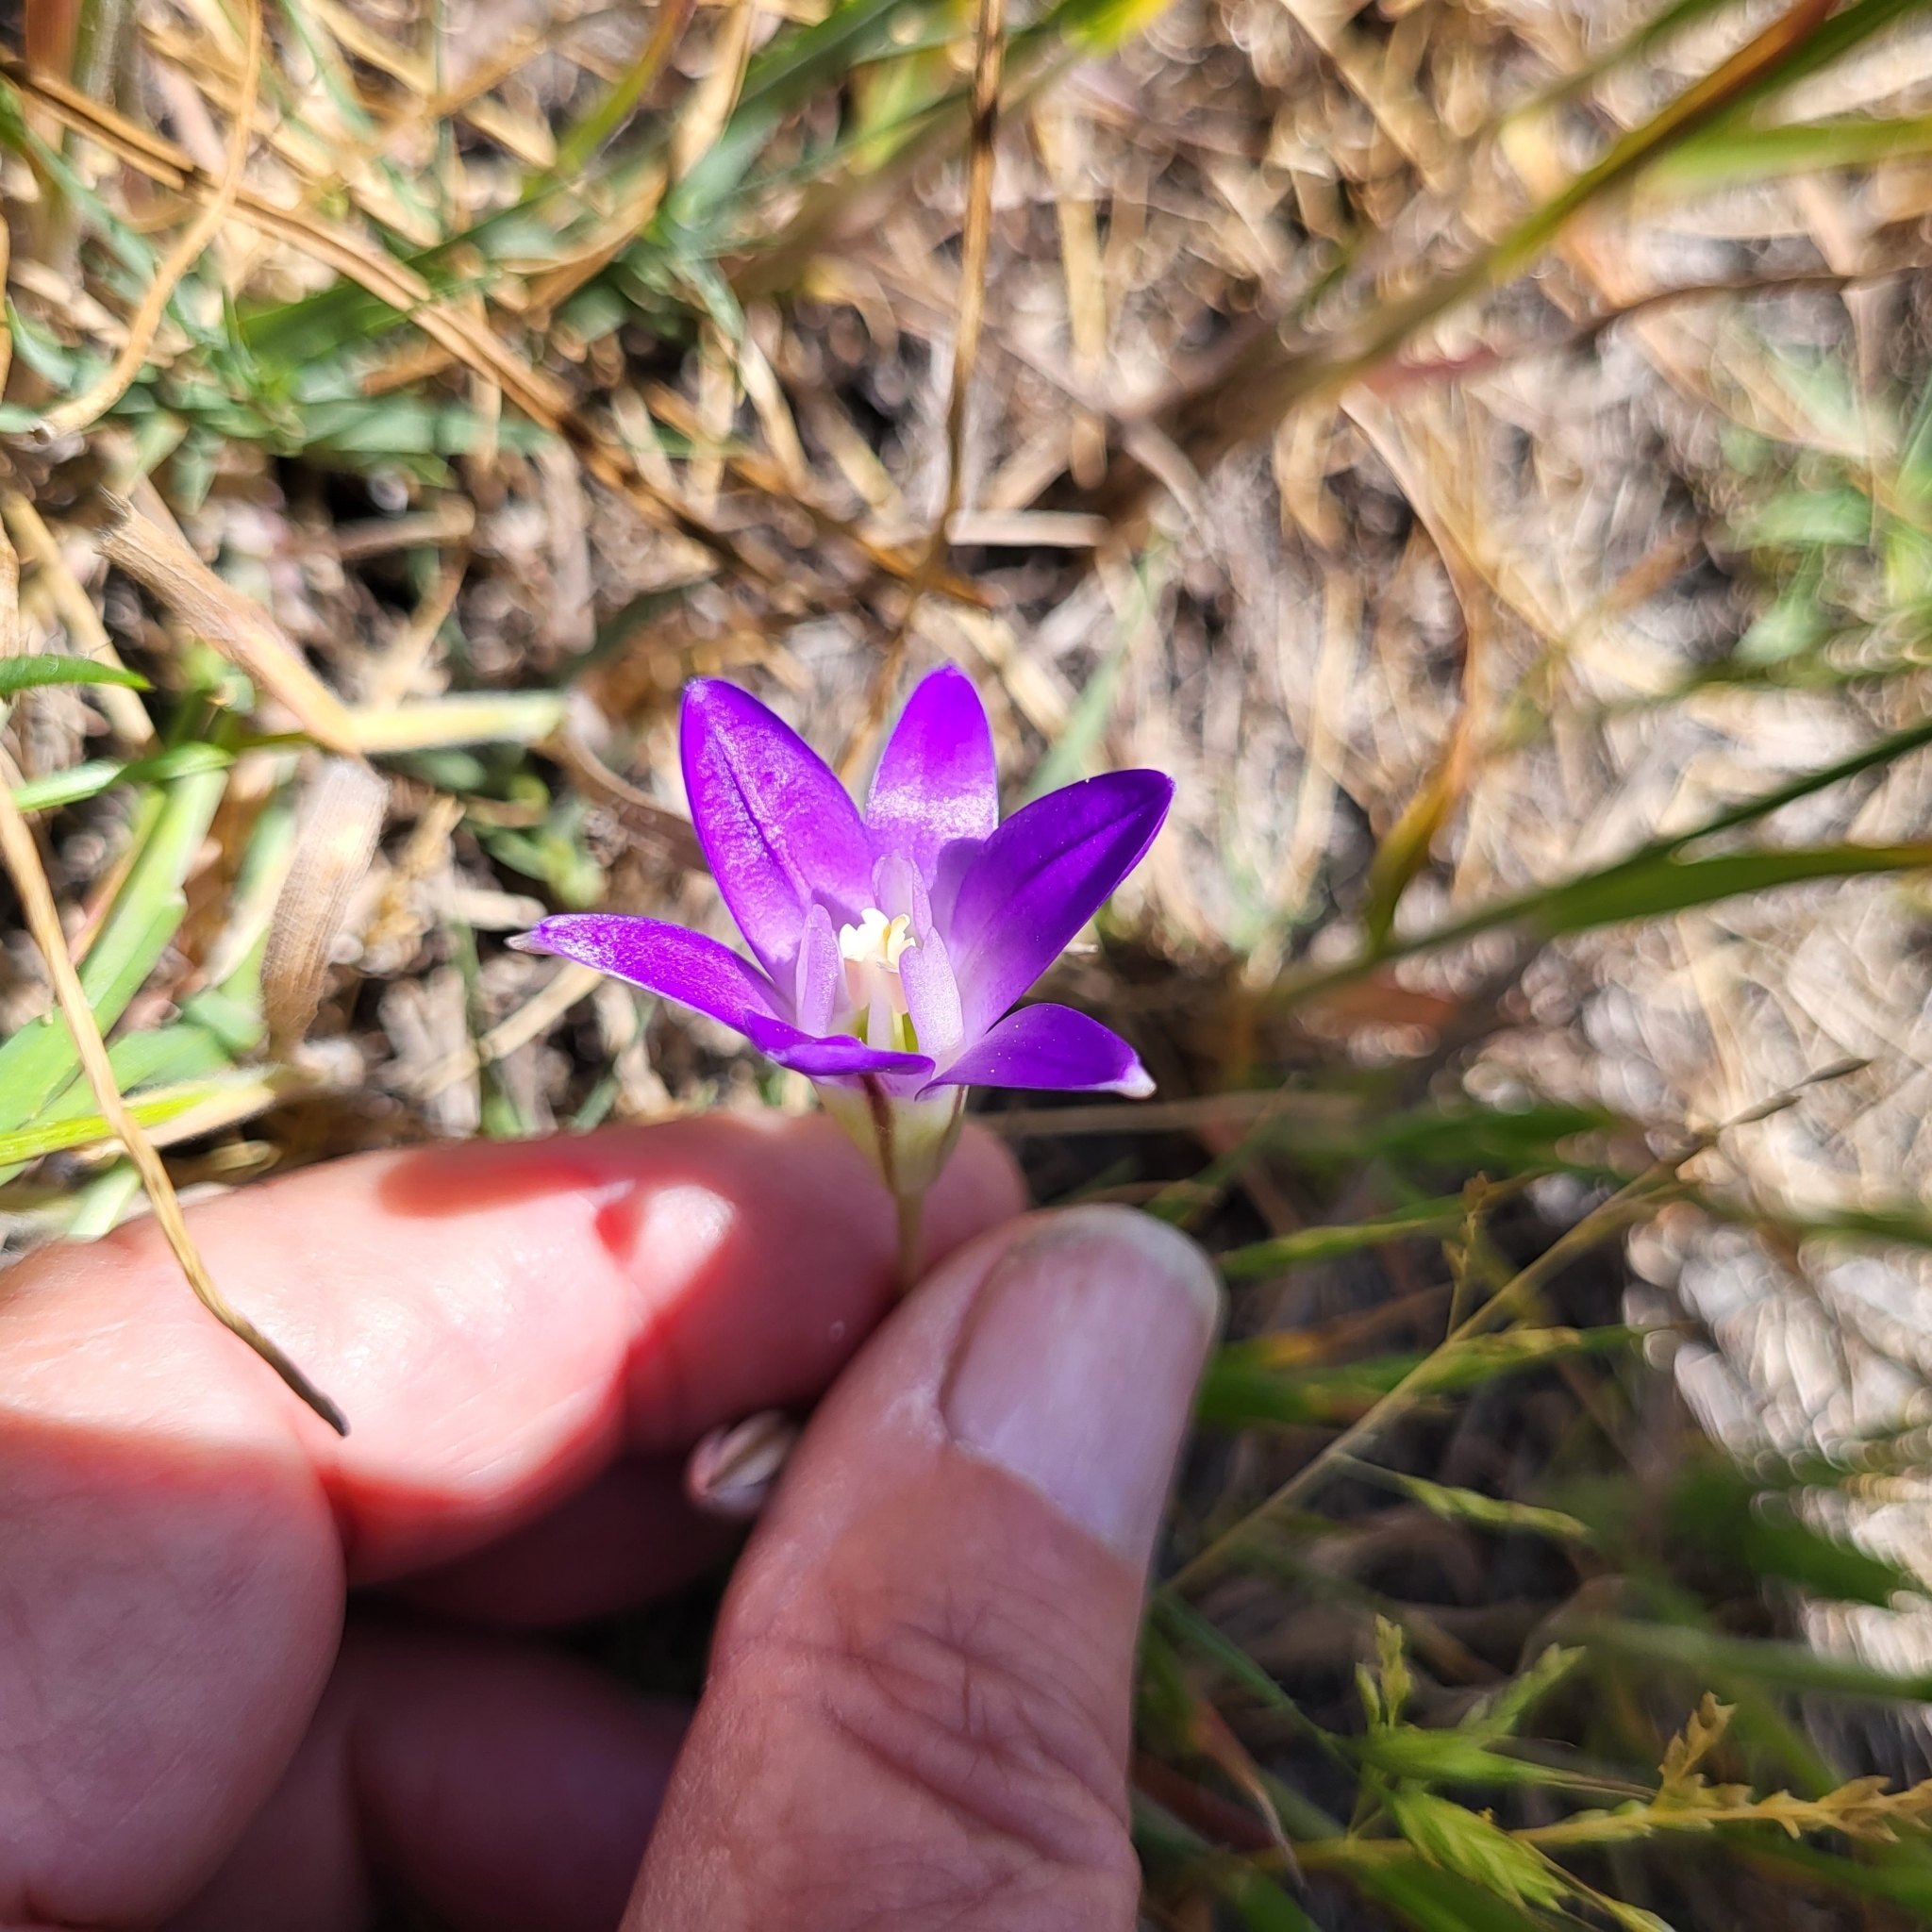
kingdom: Plantae
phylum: Tracheophyta
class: Liliopsida
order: Asparagales
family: Asparagaceae
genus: Brodiaea
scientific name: Brodiaea terrestris
